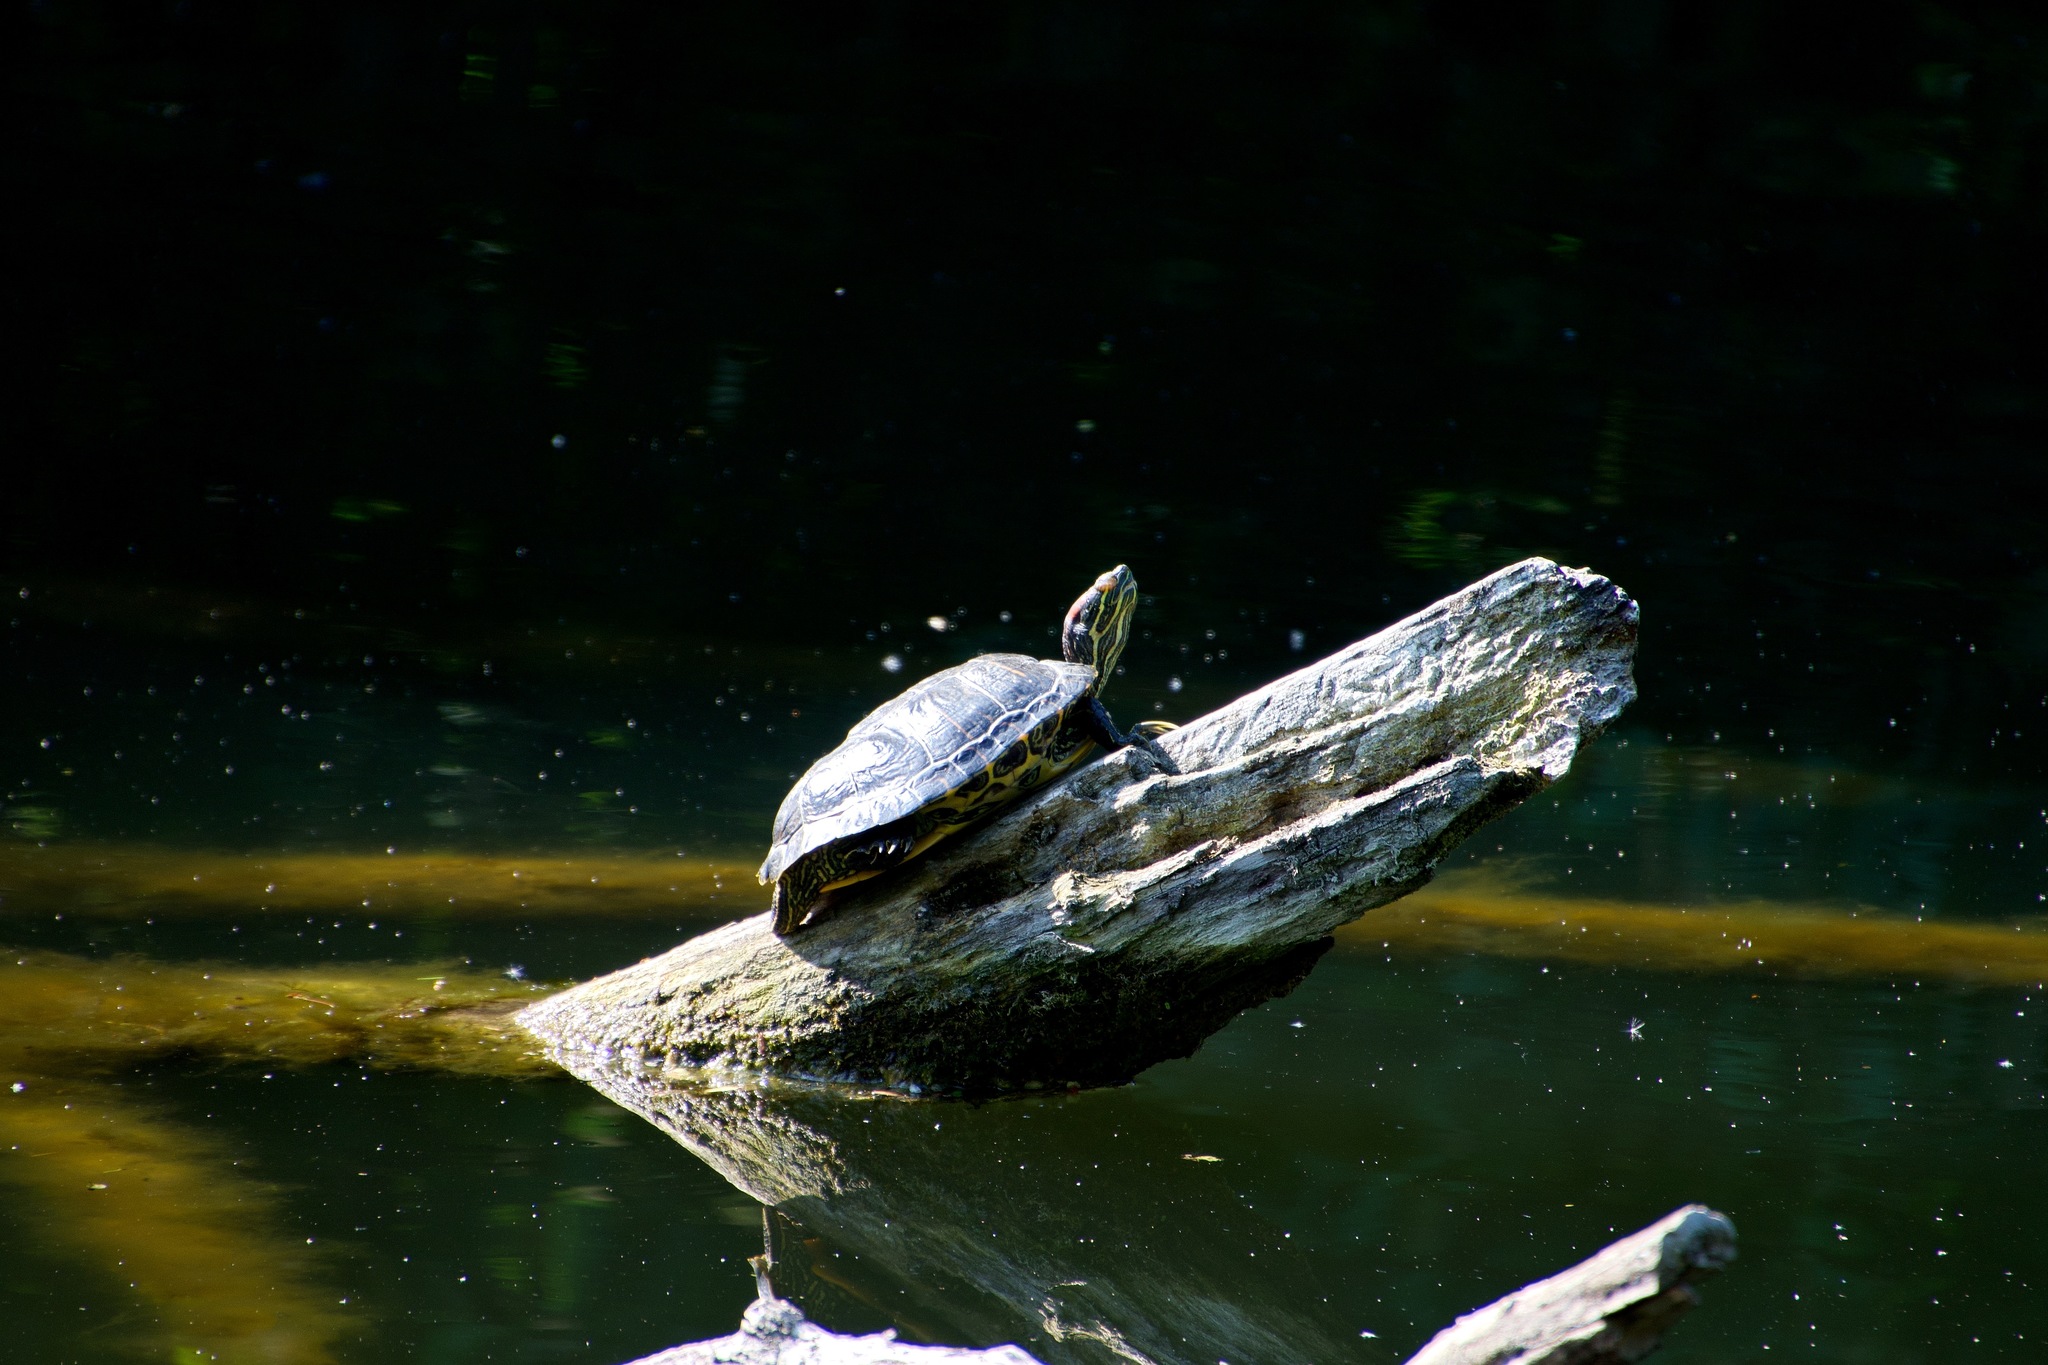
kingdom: Animalia
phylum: Chordata
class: Testudines
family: Emydidae
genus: Trachemys
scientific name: Trachemys scripta
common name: Slider
